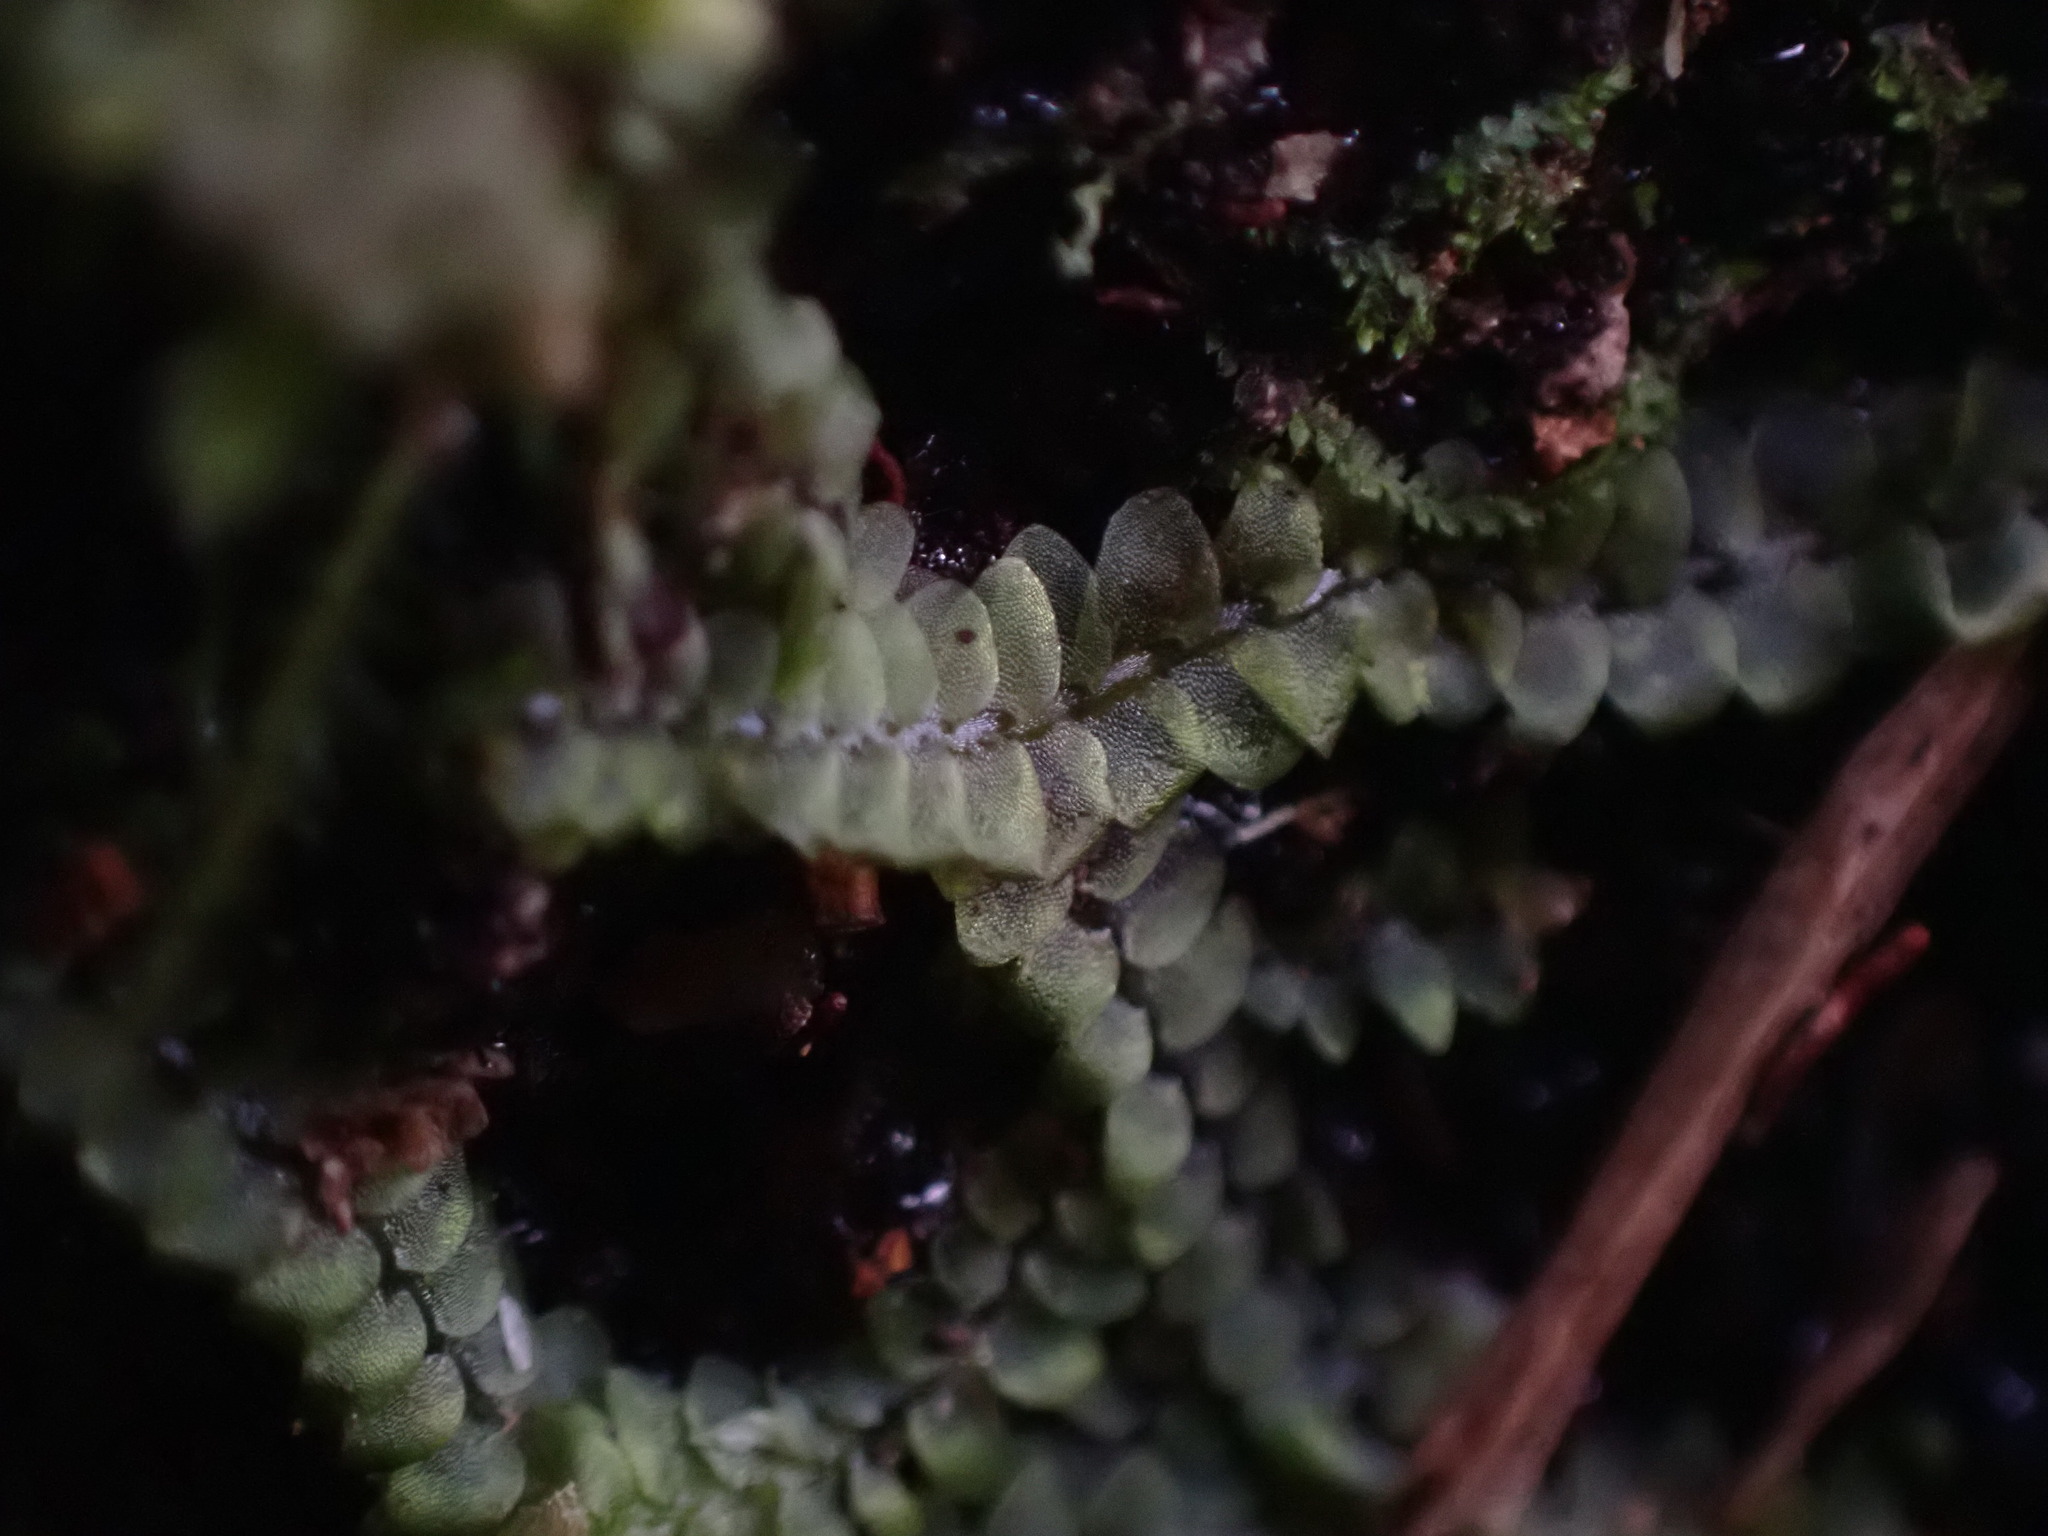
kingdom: Plantae
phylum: Marchantiophyta
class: Jungermanniopsida
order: Jungermanniales
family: Calypogeiaceae
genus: Calypogeia
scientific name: Calypogeia azurea
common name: Blue pouchwort
